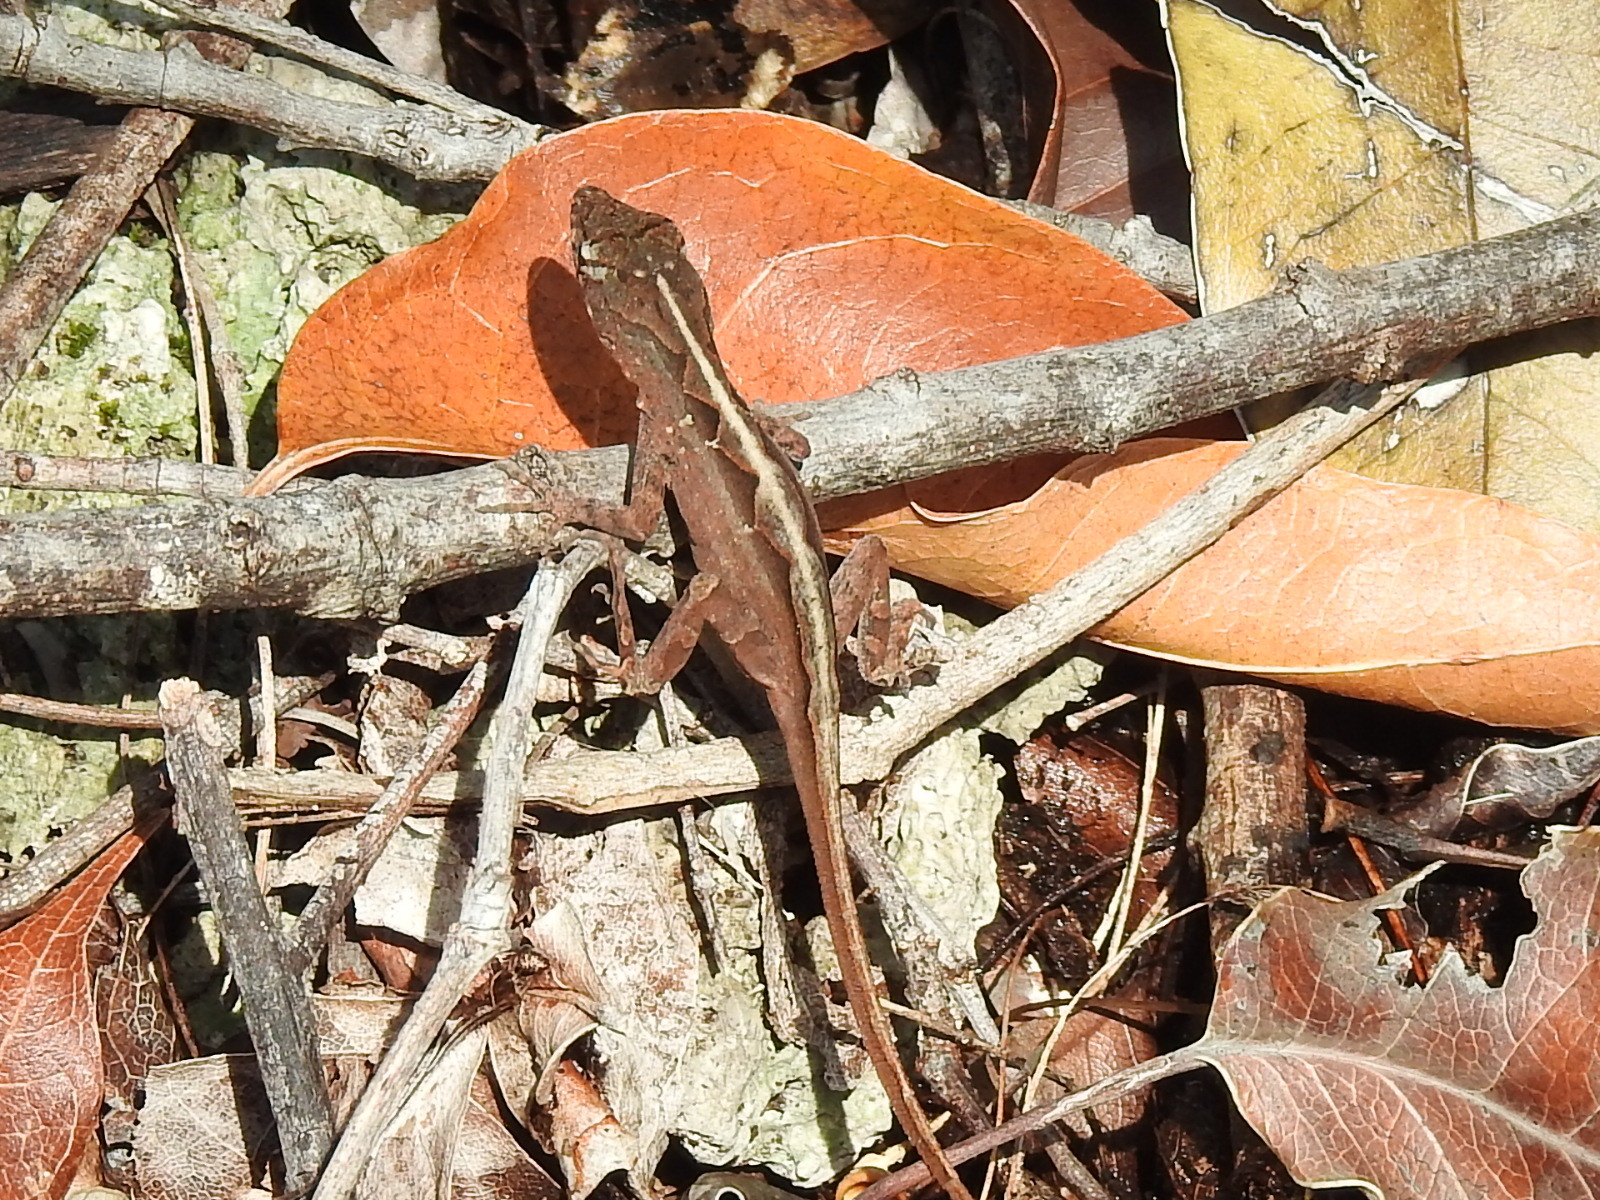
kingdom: Animalia
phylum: Chordata
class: Squamata
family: Dactyloidae
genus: Anolis
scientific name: Anolis sagrei
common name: Brown anole
